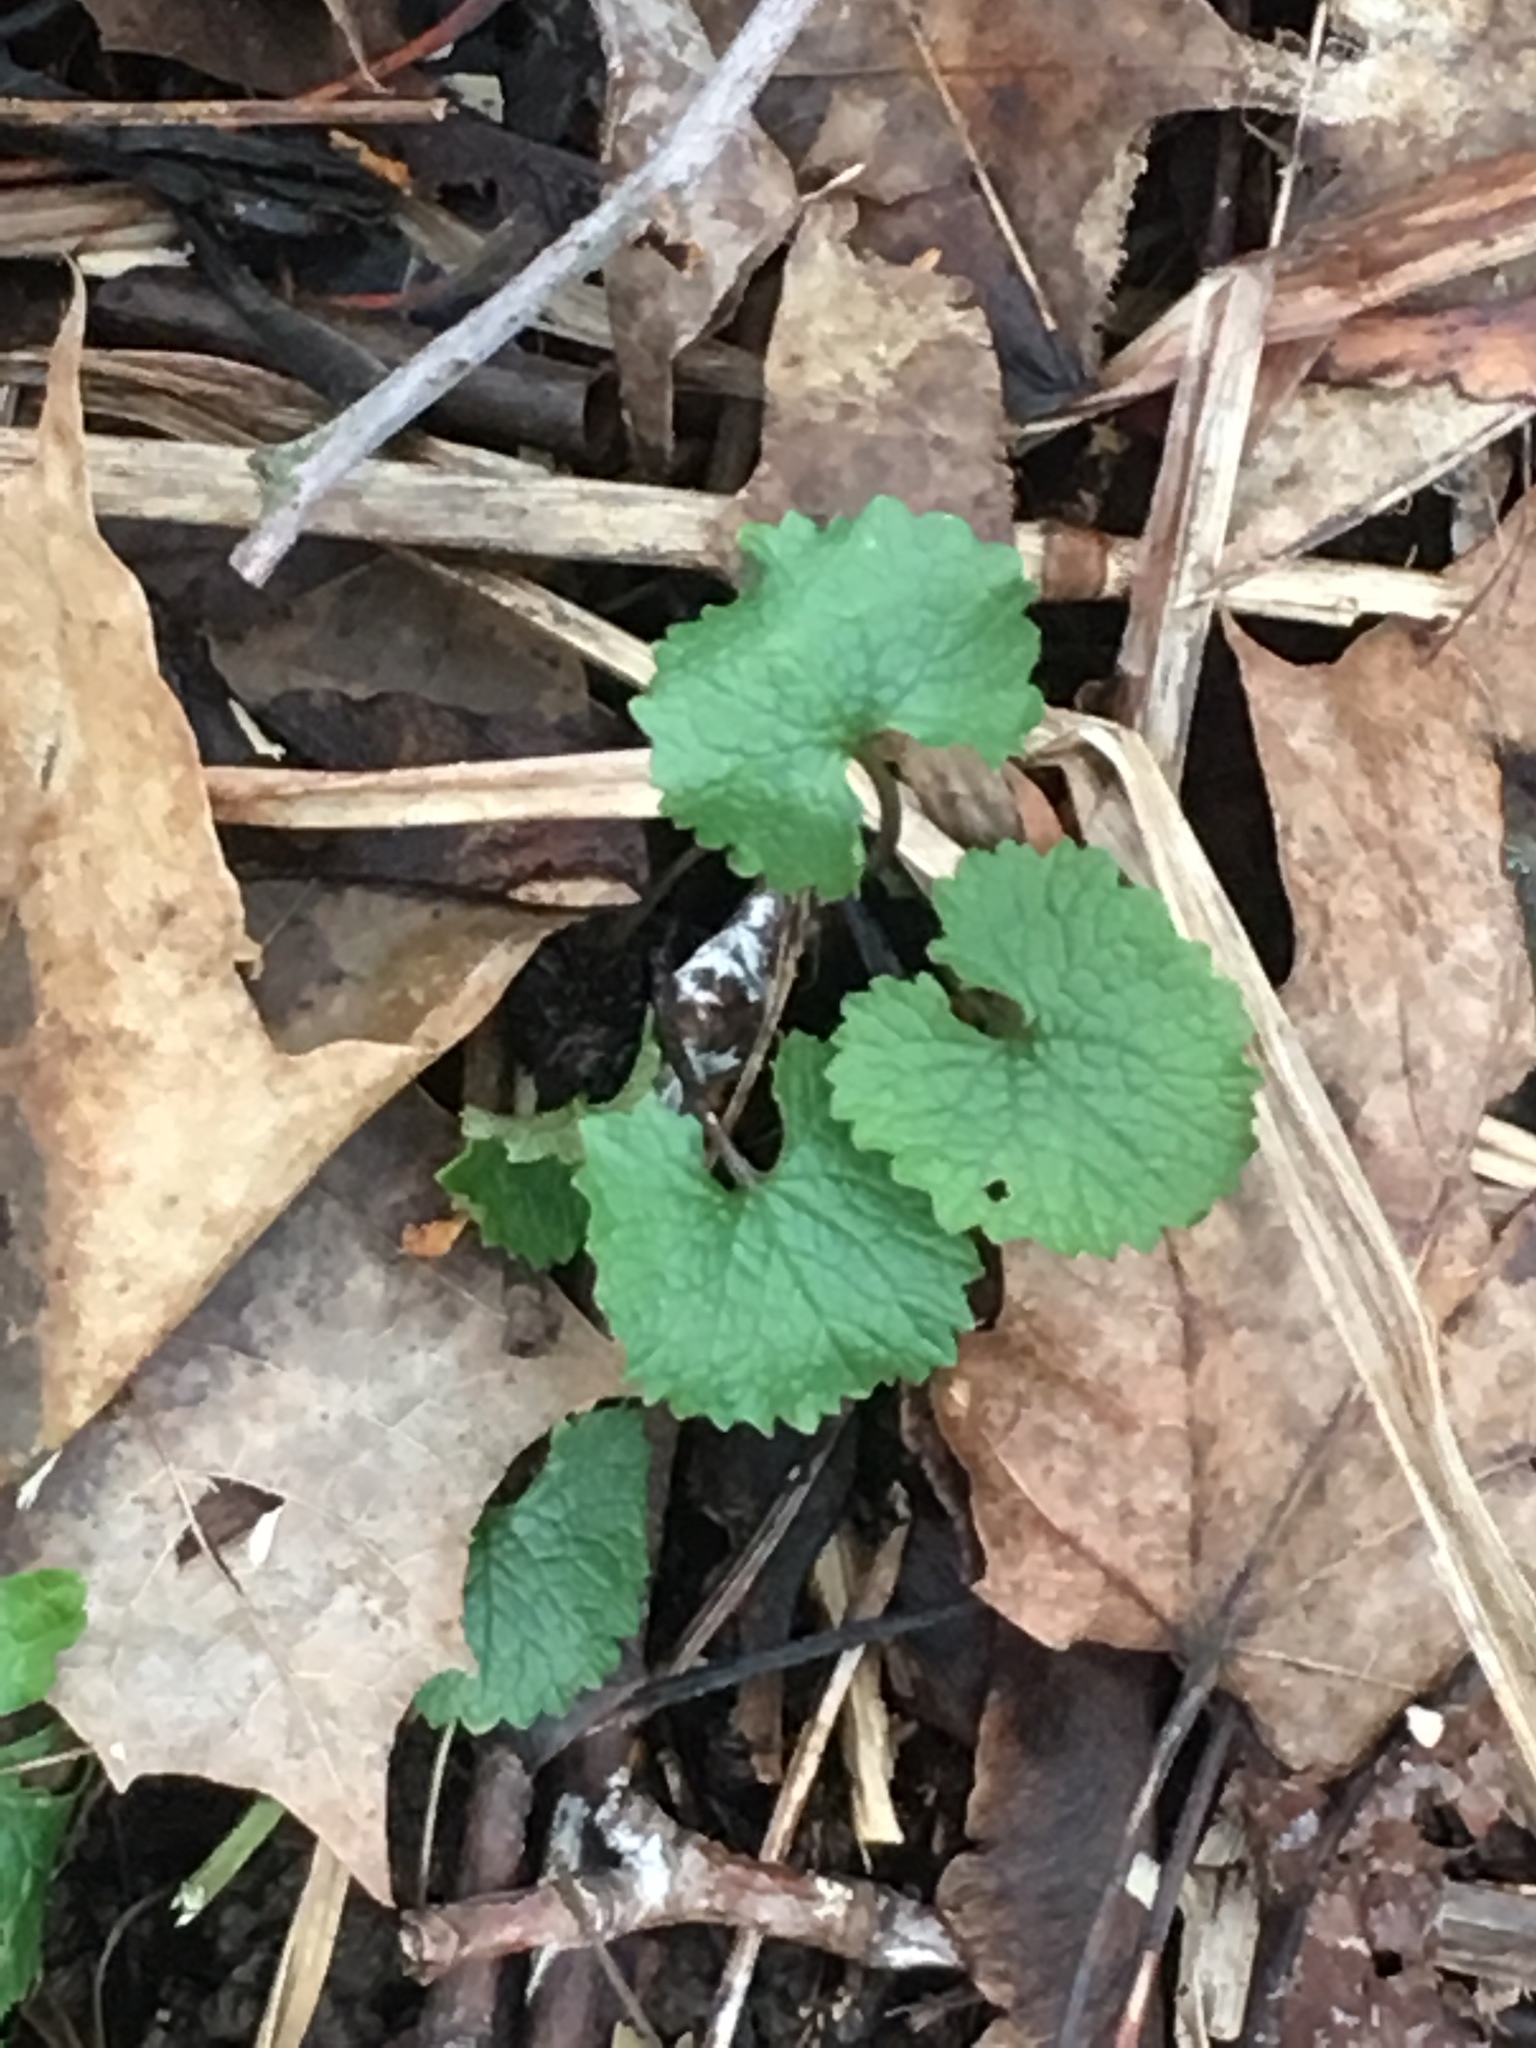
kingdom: Plantae
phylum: Tracheophyta
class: Magnoliopsida
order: Brassicales
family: Brassicaceae
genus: Alliaria
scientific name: Alliaria petiolata
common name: Garlic mustard
